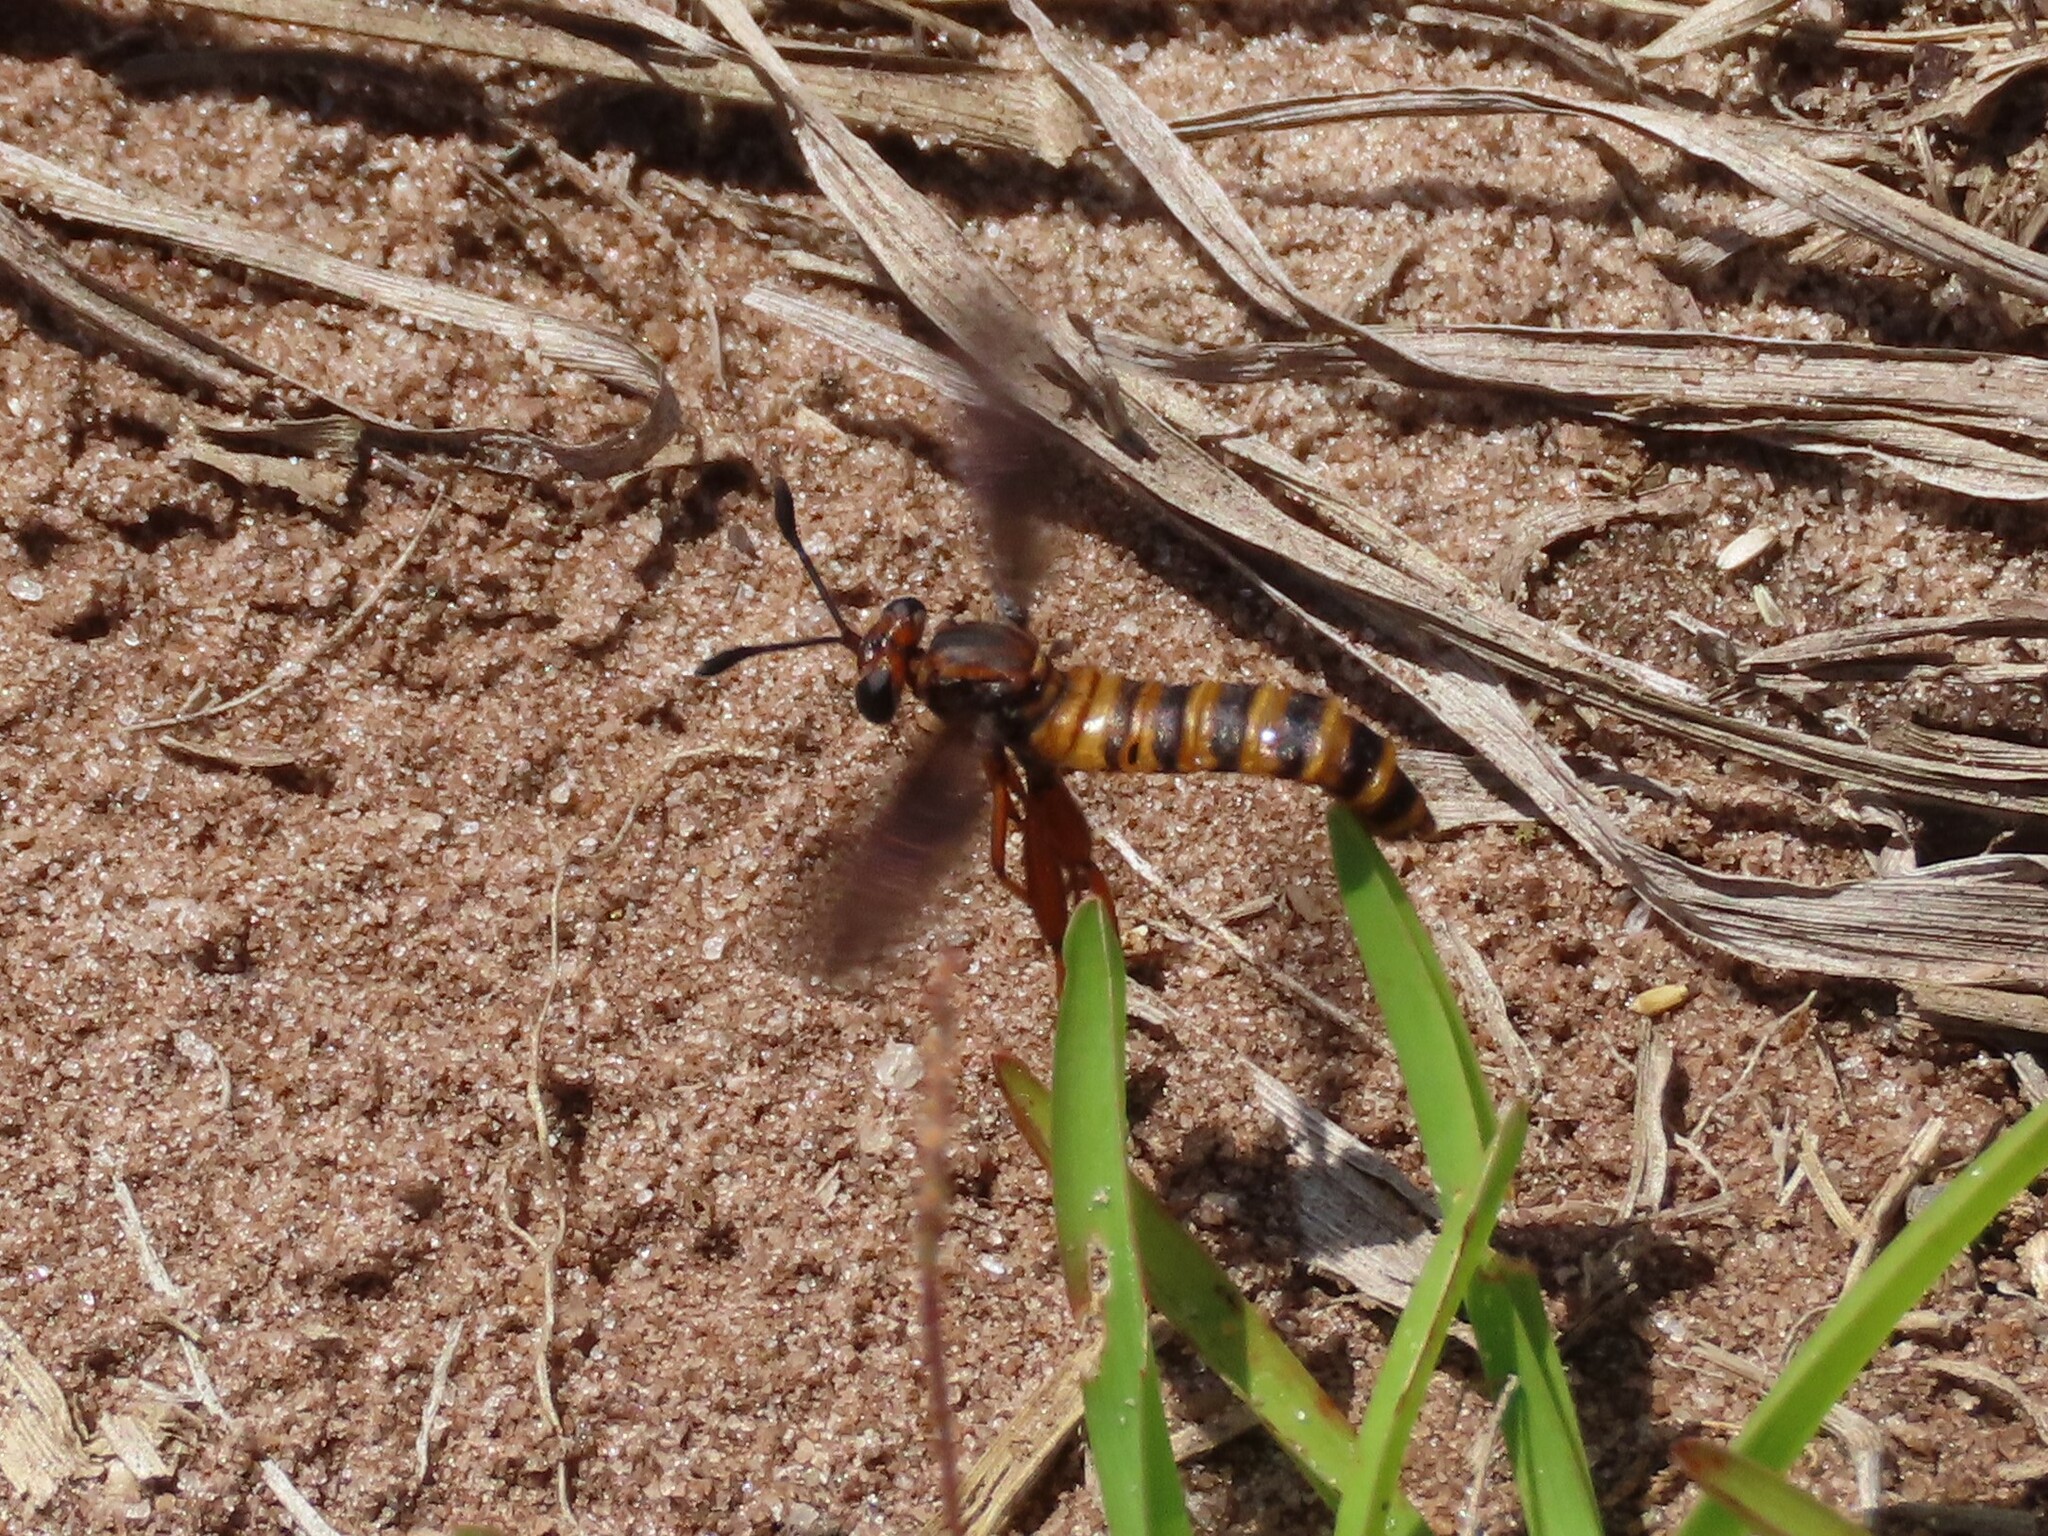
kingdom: Animalia
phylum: Arthropoda
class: Insecta
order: Diptera
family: Mydidae
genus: Phyllomydas
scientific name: Phyllomydas parvulus
